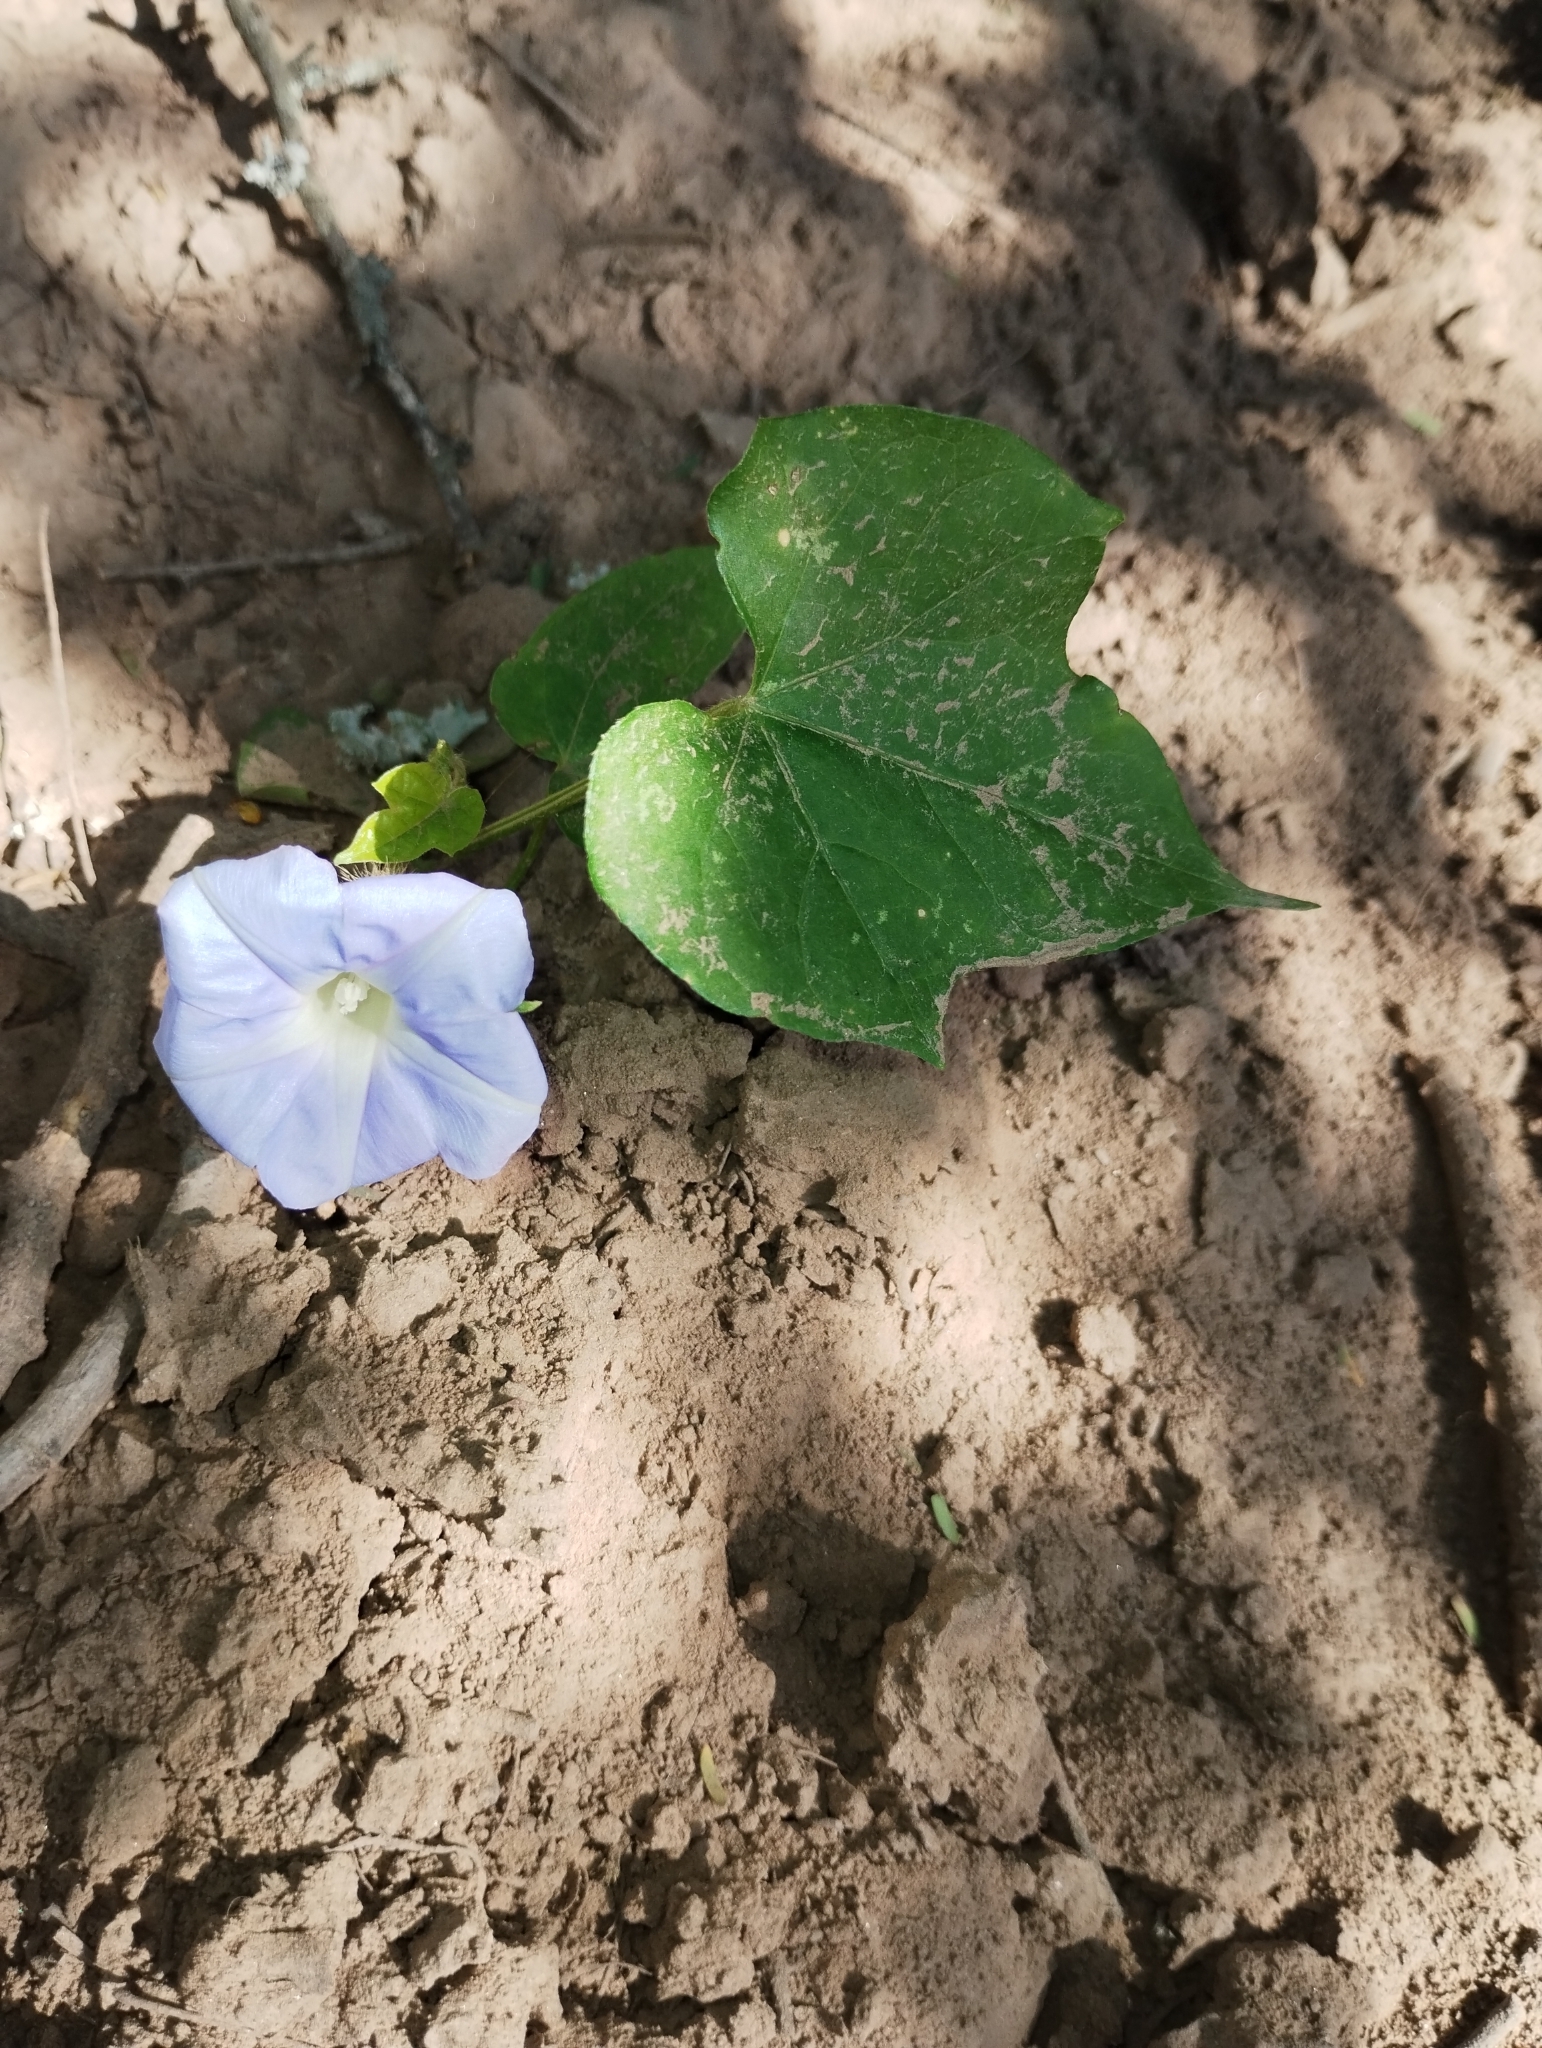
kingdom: Plantae
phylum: Tracheophyta
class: Magnoliopsida
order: Solanales
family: Convolvulaceae
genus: Ipomoea
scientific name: Ipomoea nil
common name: Japanese morning-glory
